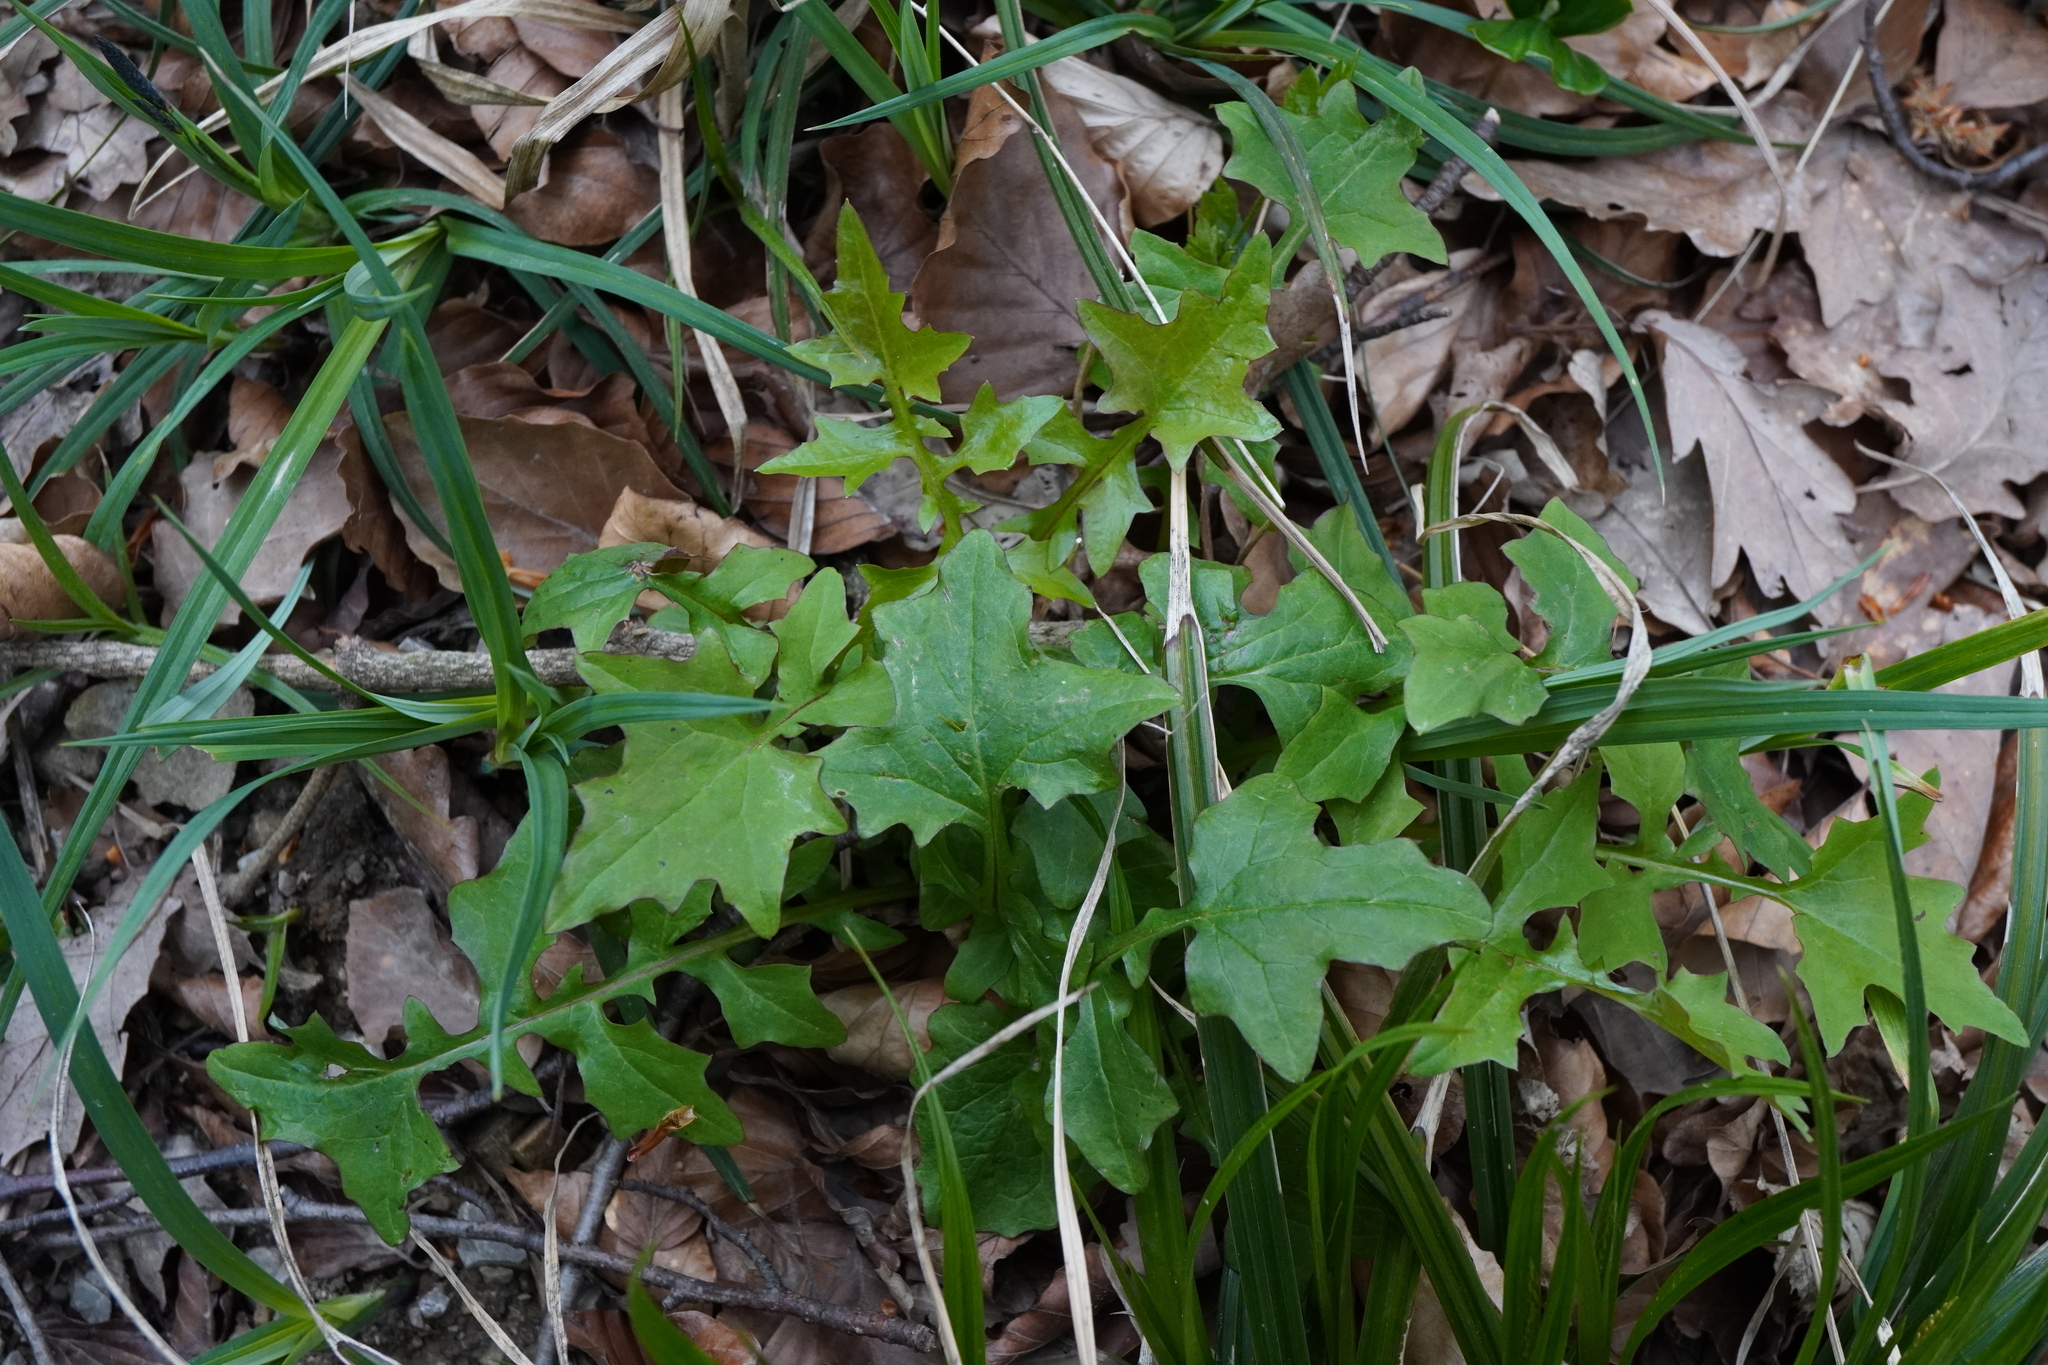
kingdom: Plantae
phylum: Tracheophyta
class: Magnoliopsida
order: Asterales
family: Asteraceae
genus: Mycelis
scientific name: Mycelis muralis
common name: Wall lettuce
